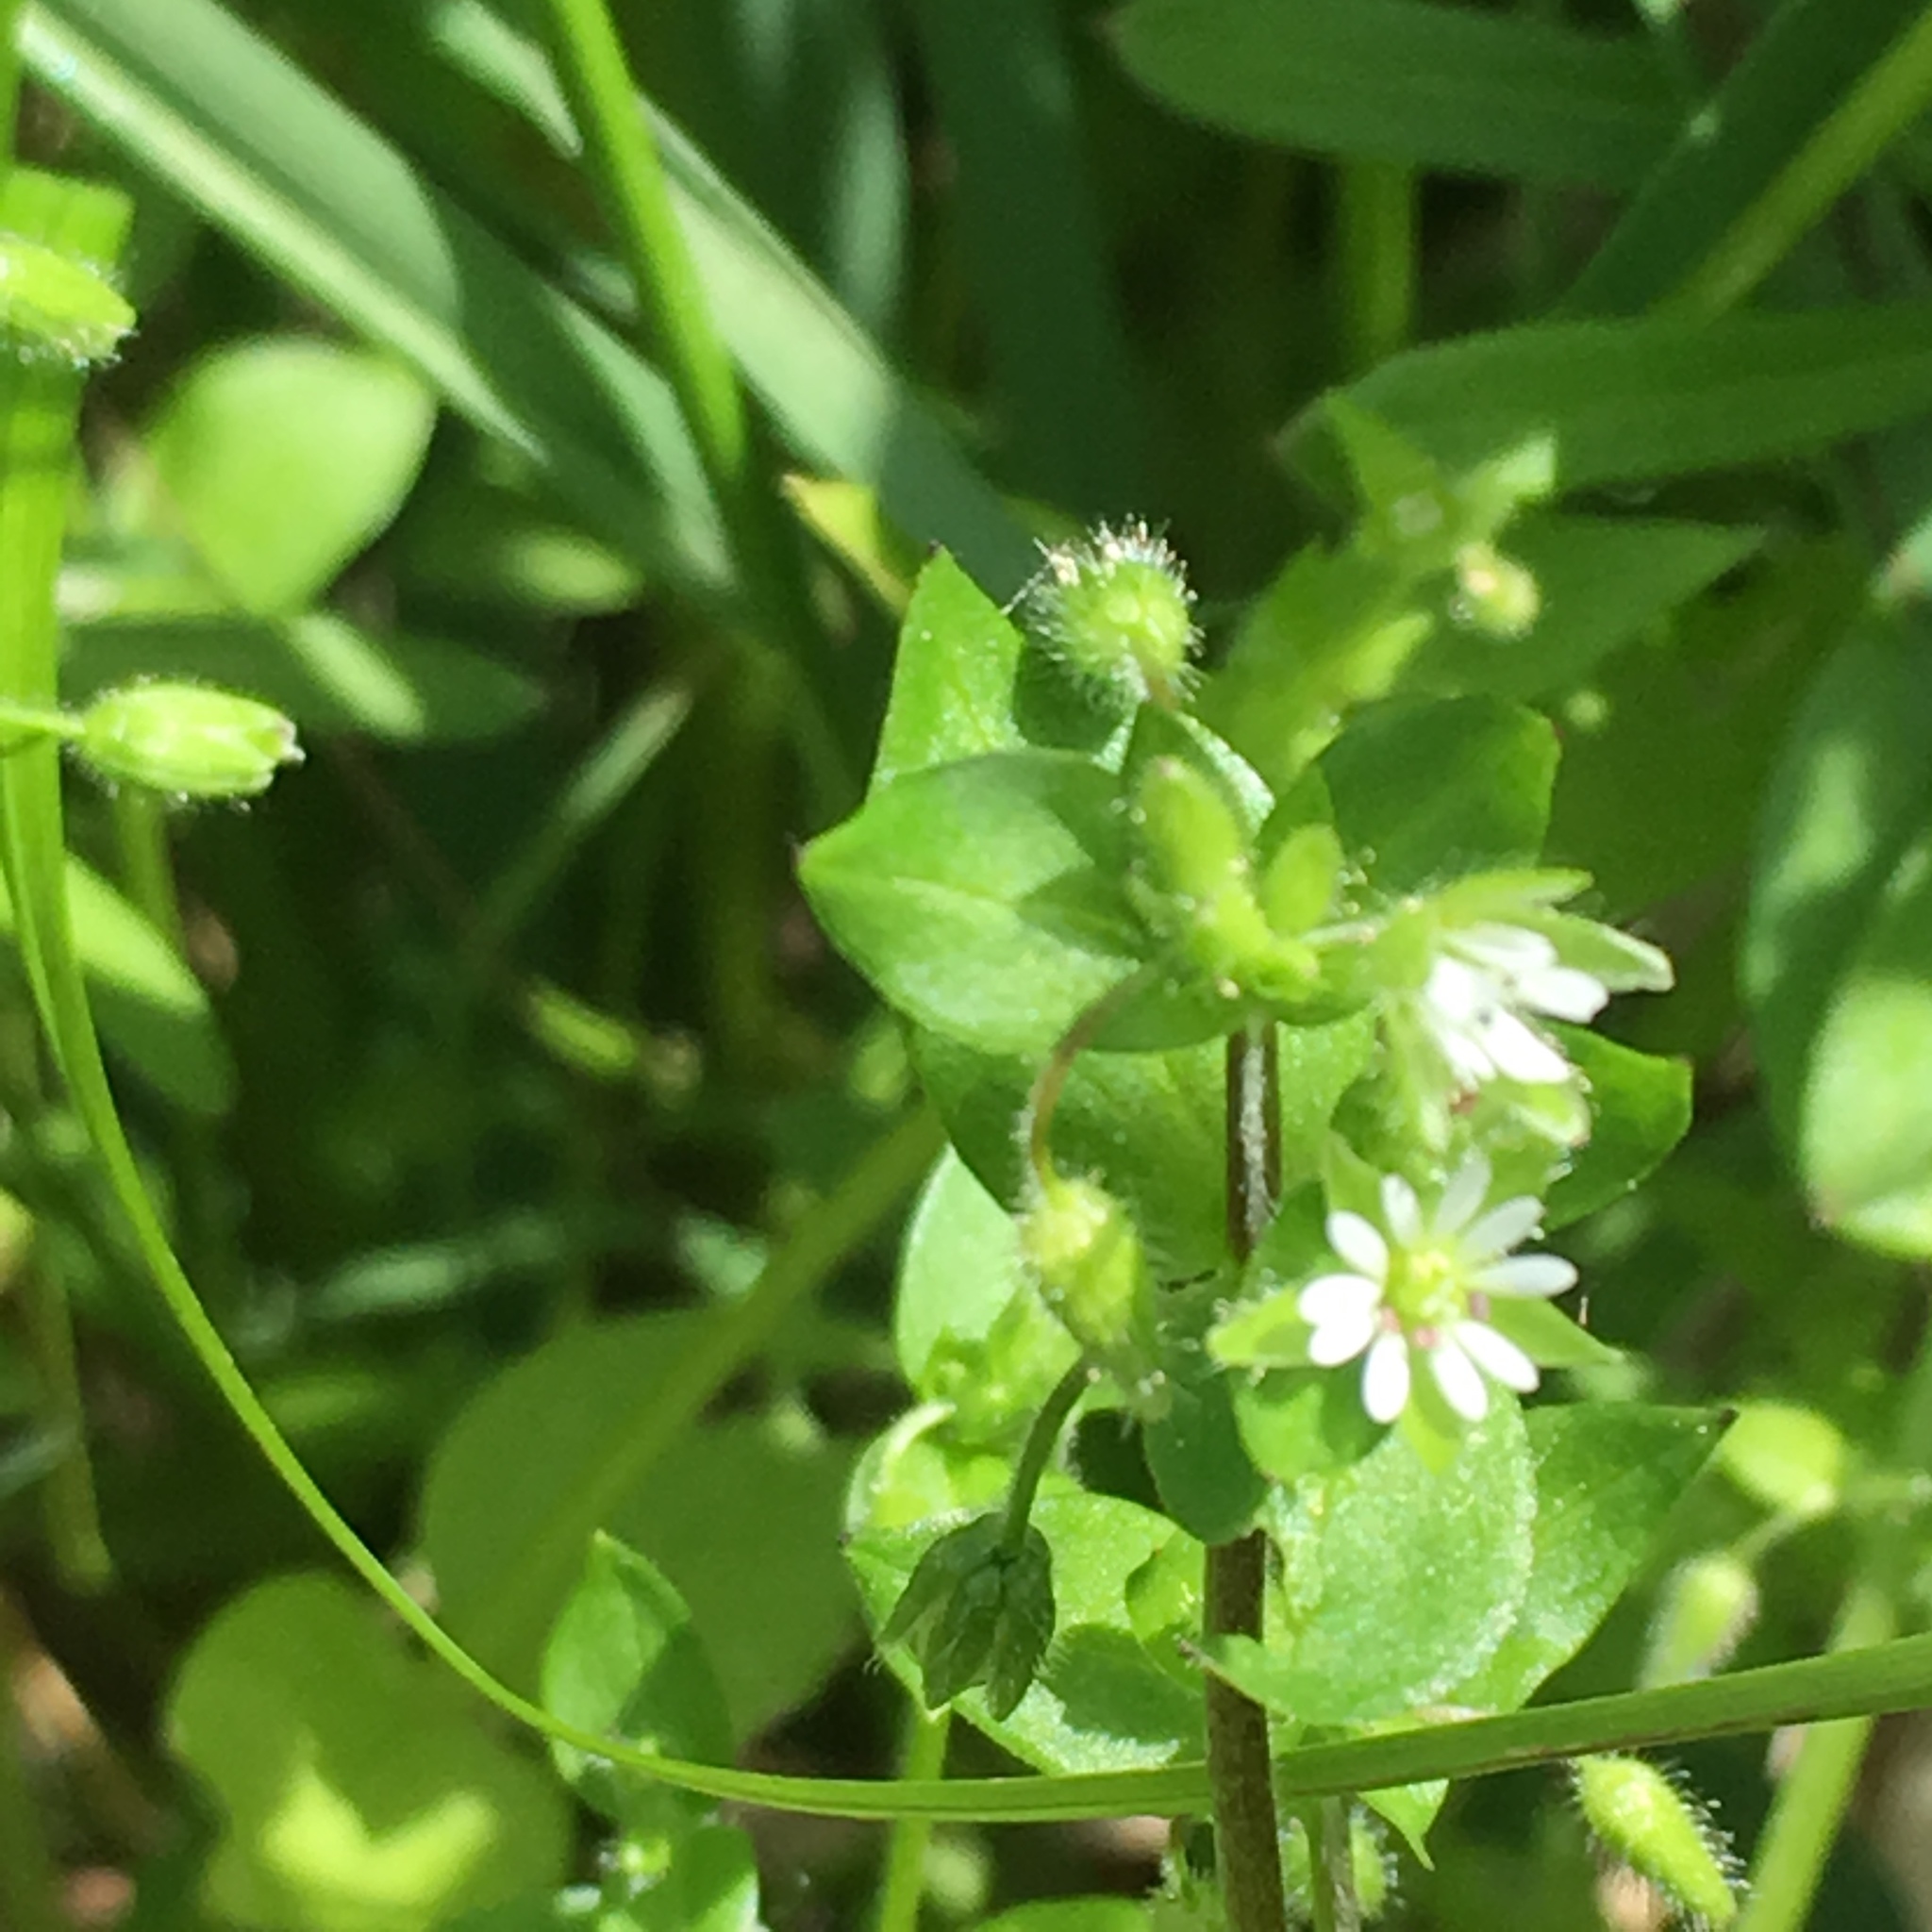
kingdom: Plantae
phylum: Tracheophyta
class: Magnoliopsida
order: Caryophyllales
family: Caryophyllaceae
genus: Stellaria
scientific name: Stellaria media
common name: Common chickweed
